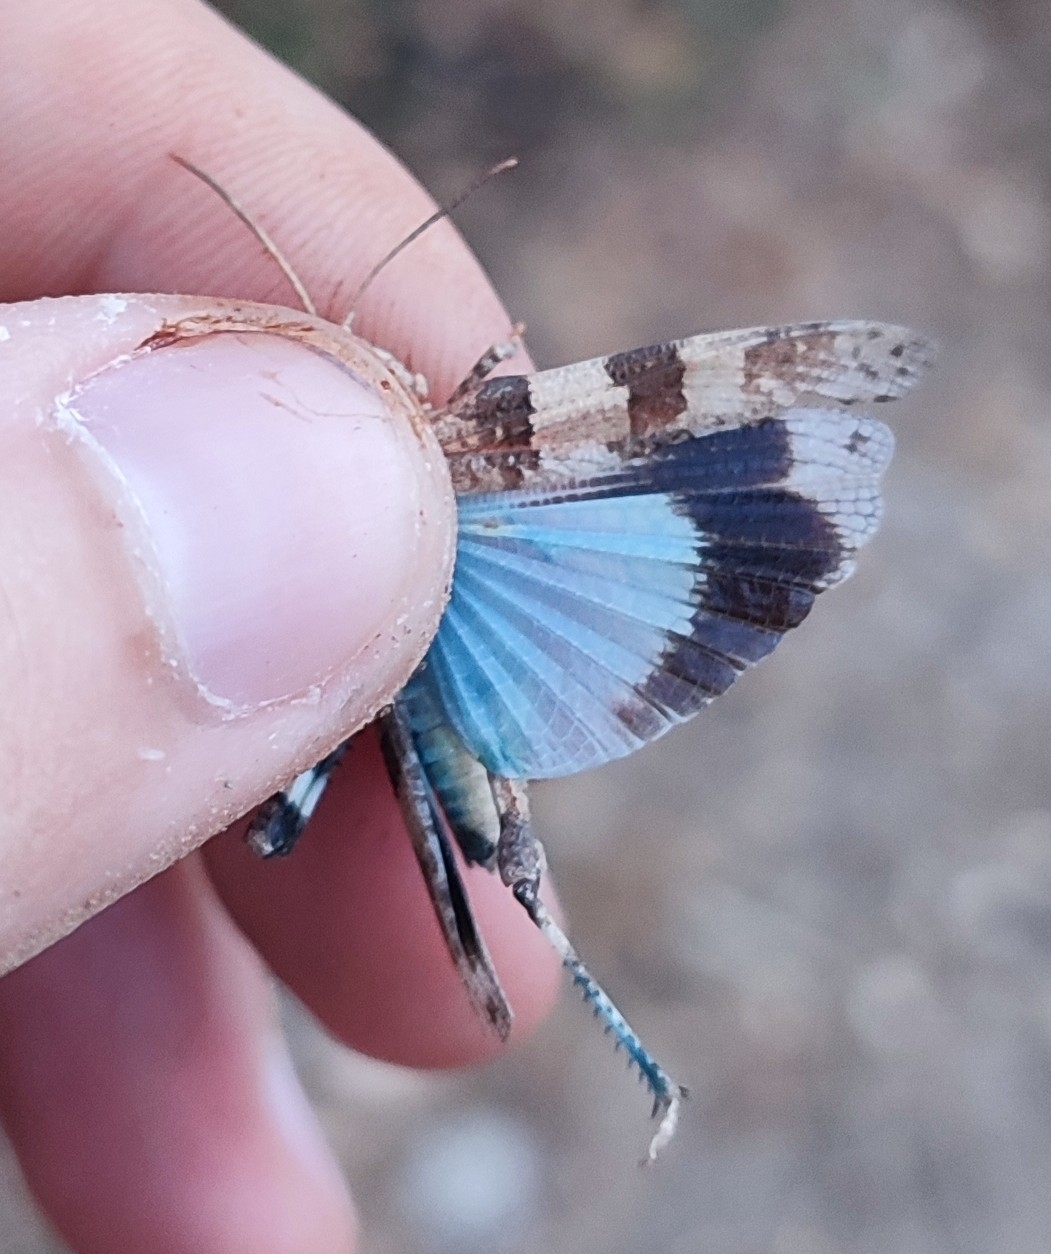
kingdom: Animalia
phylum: Arthropoda
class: Insecta
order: Orthoptera
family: Acrididae
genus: Oedipoda
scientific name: Oedipoda caerulescens
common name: Blue-winged grasshopper
